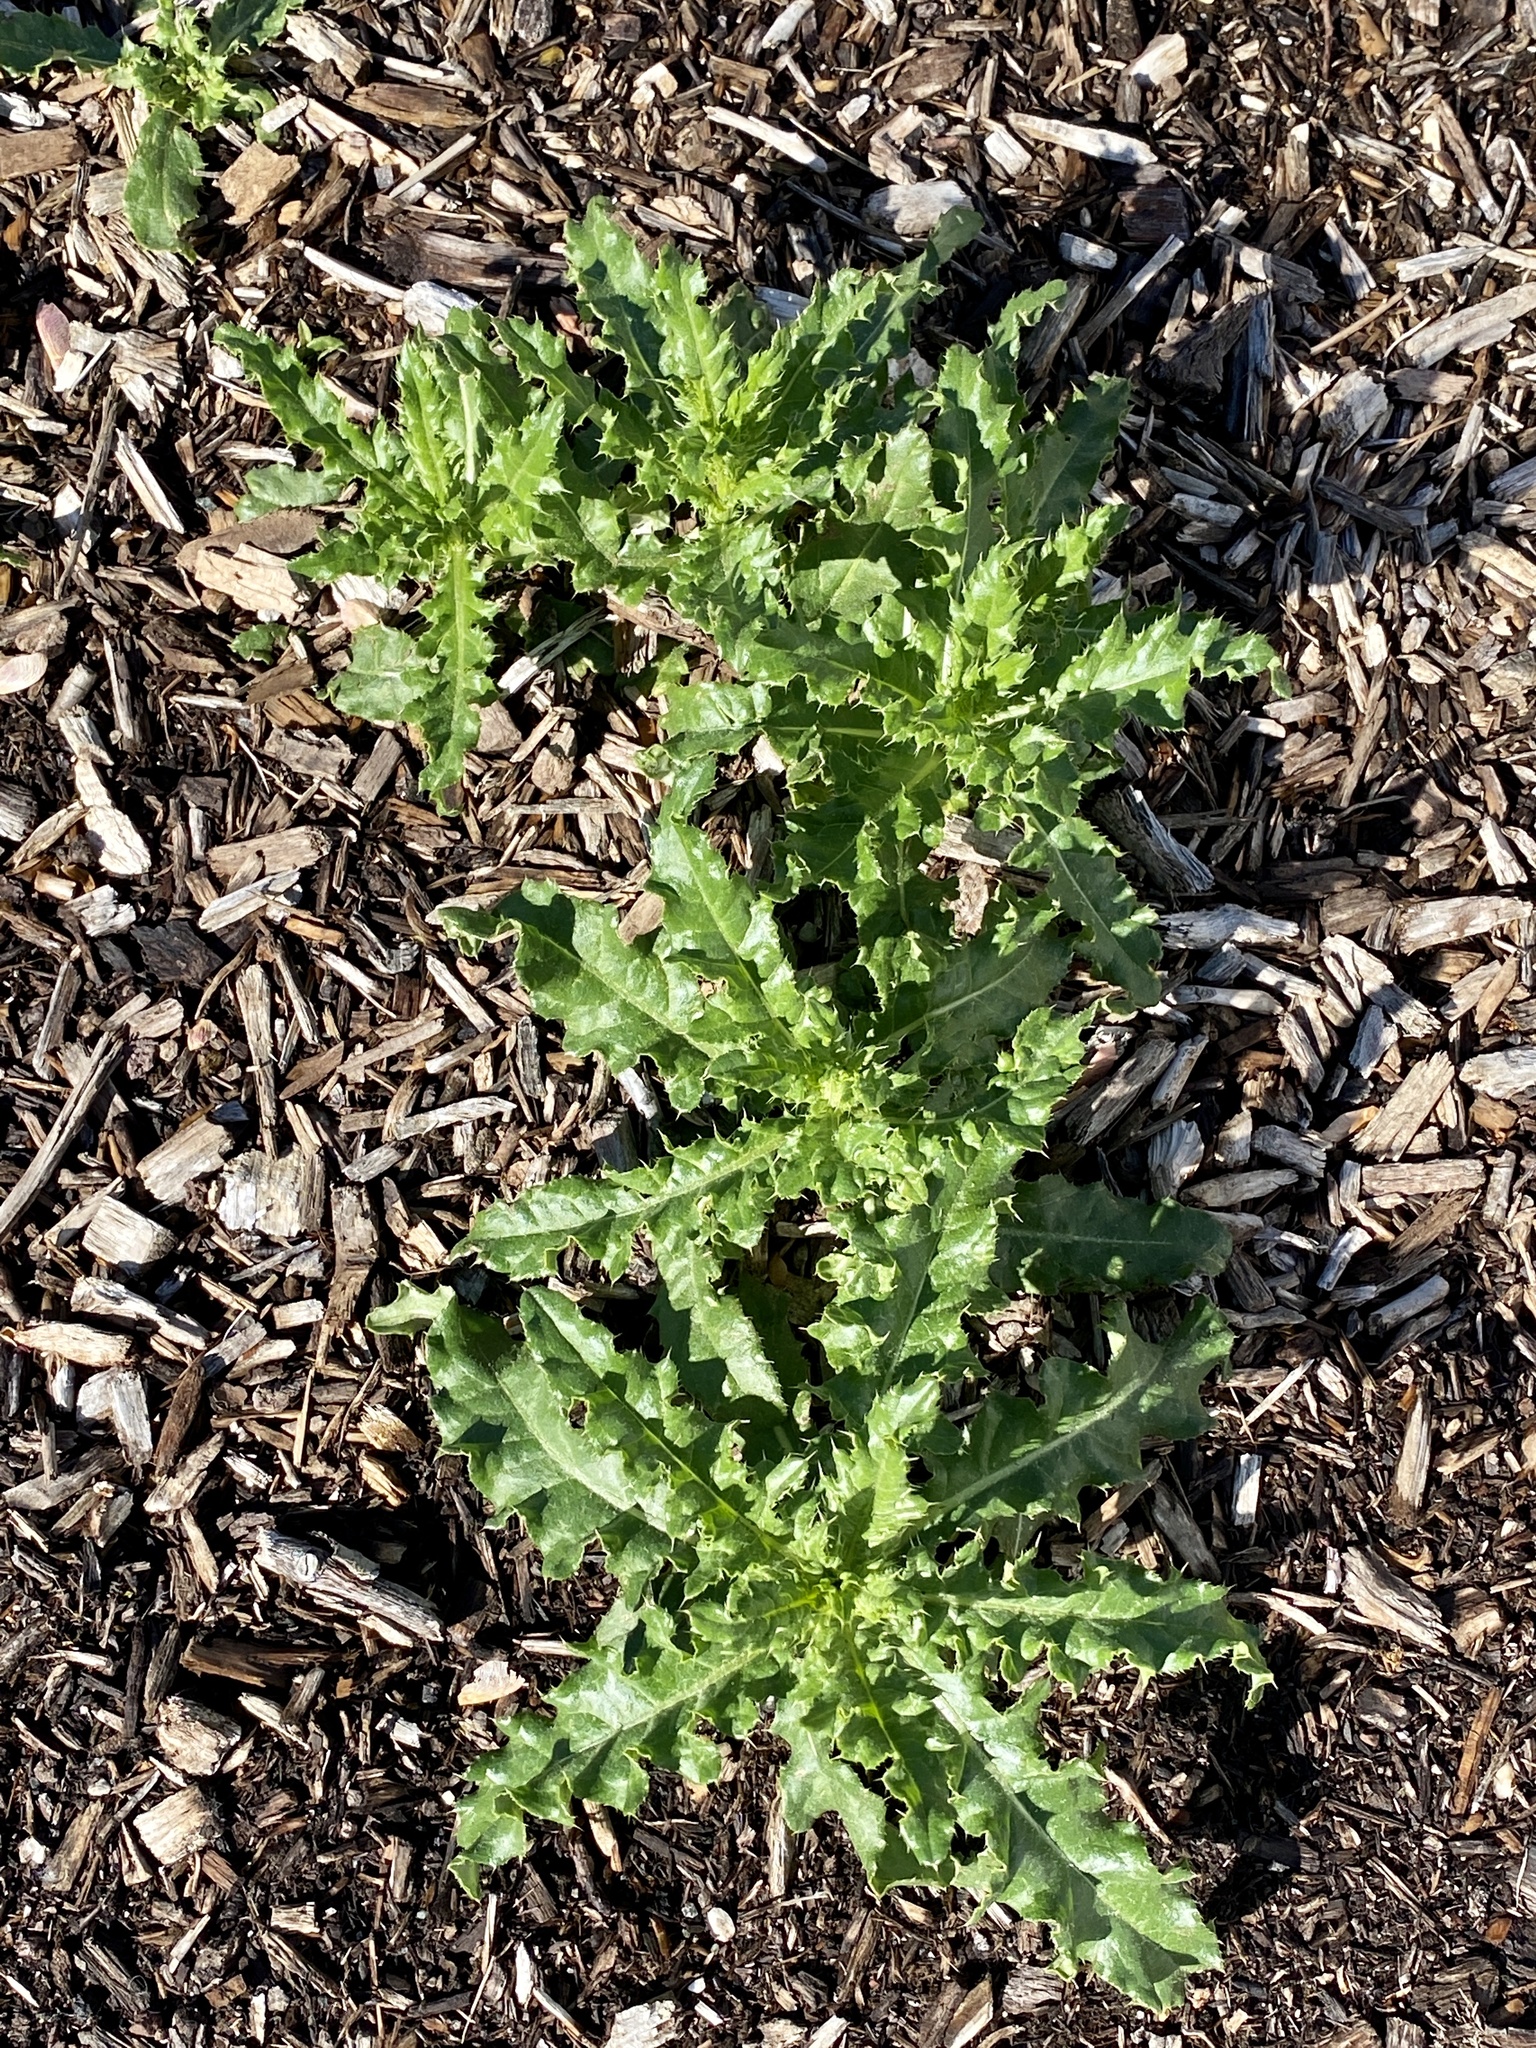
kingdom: Plantae
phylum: Tracheophyta
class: Magnoliopsida
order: Asterales
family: Asteraceae
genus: Cirsium
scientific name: Cirsium arvense
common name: Creeping thistle
